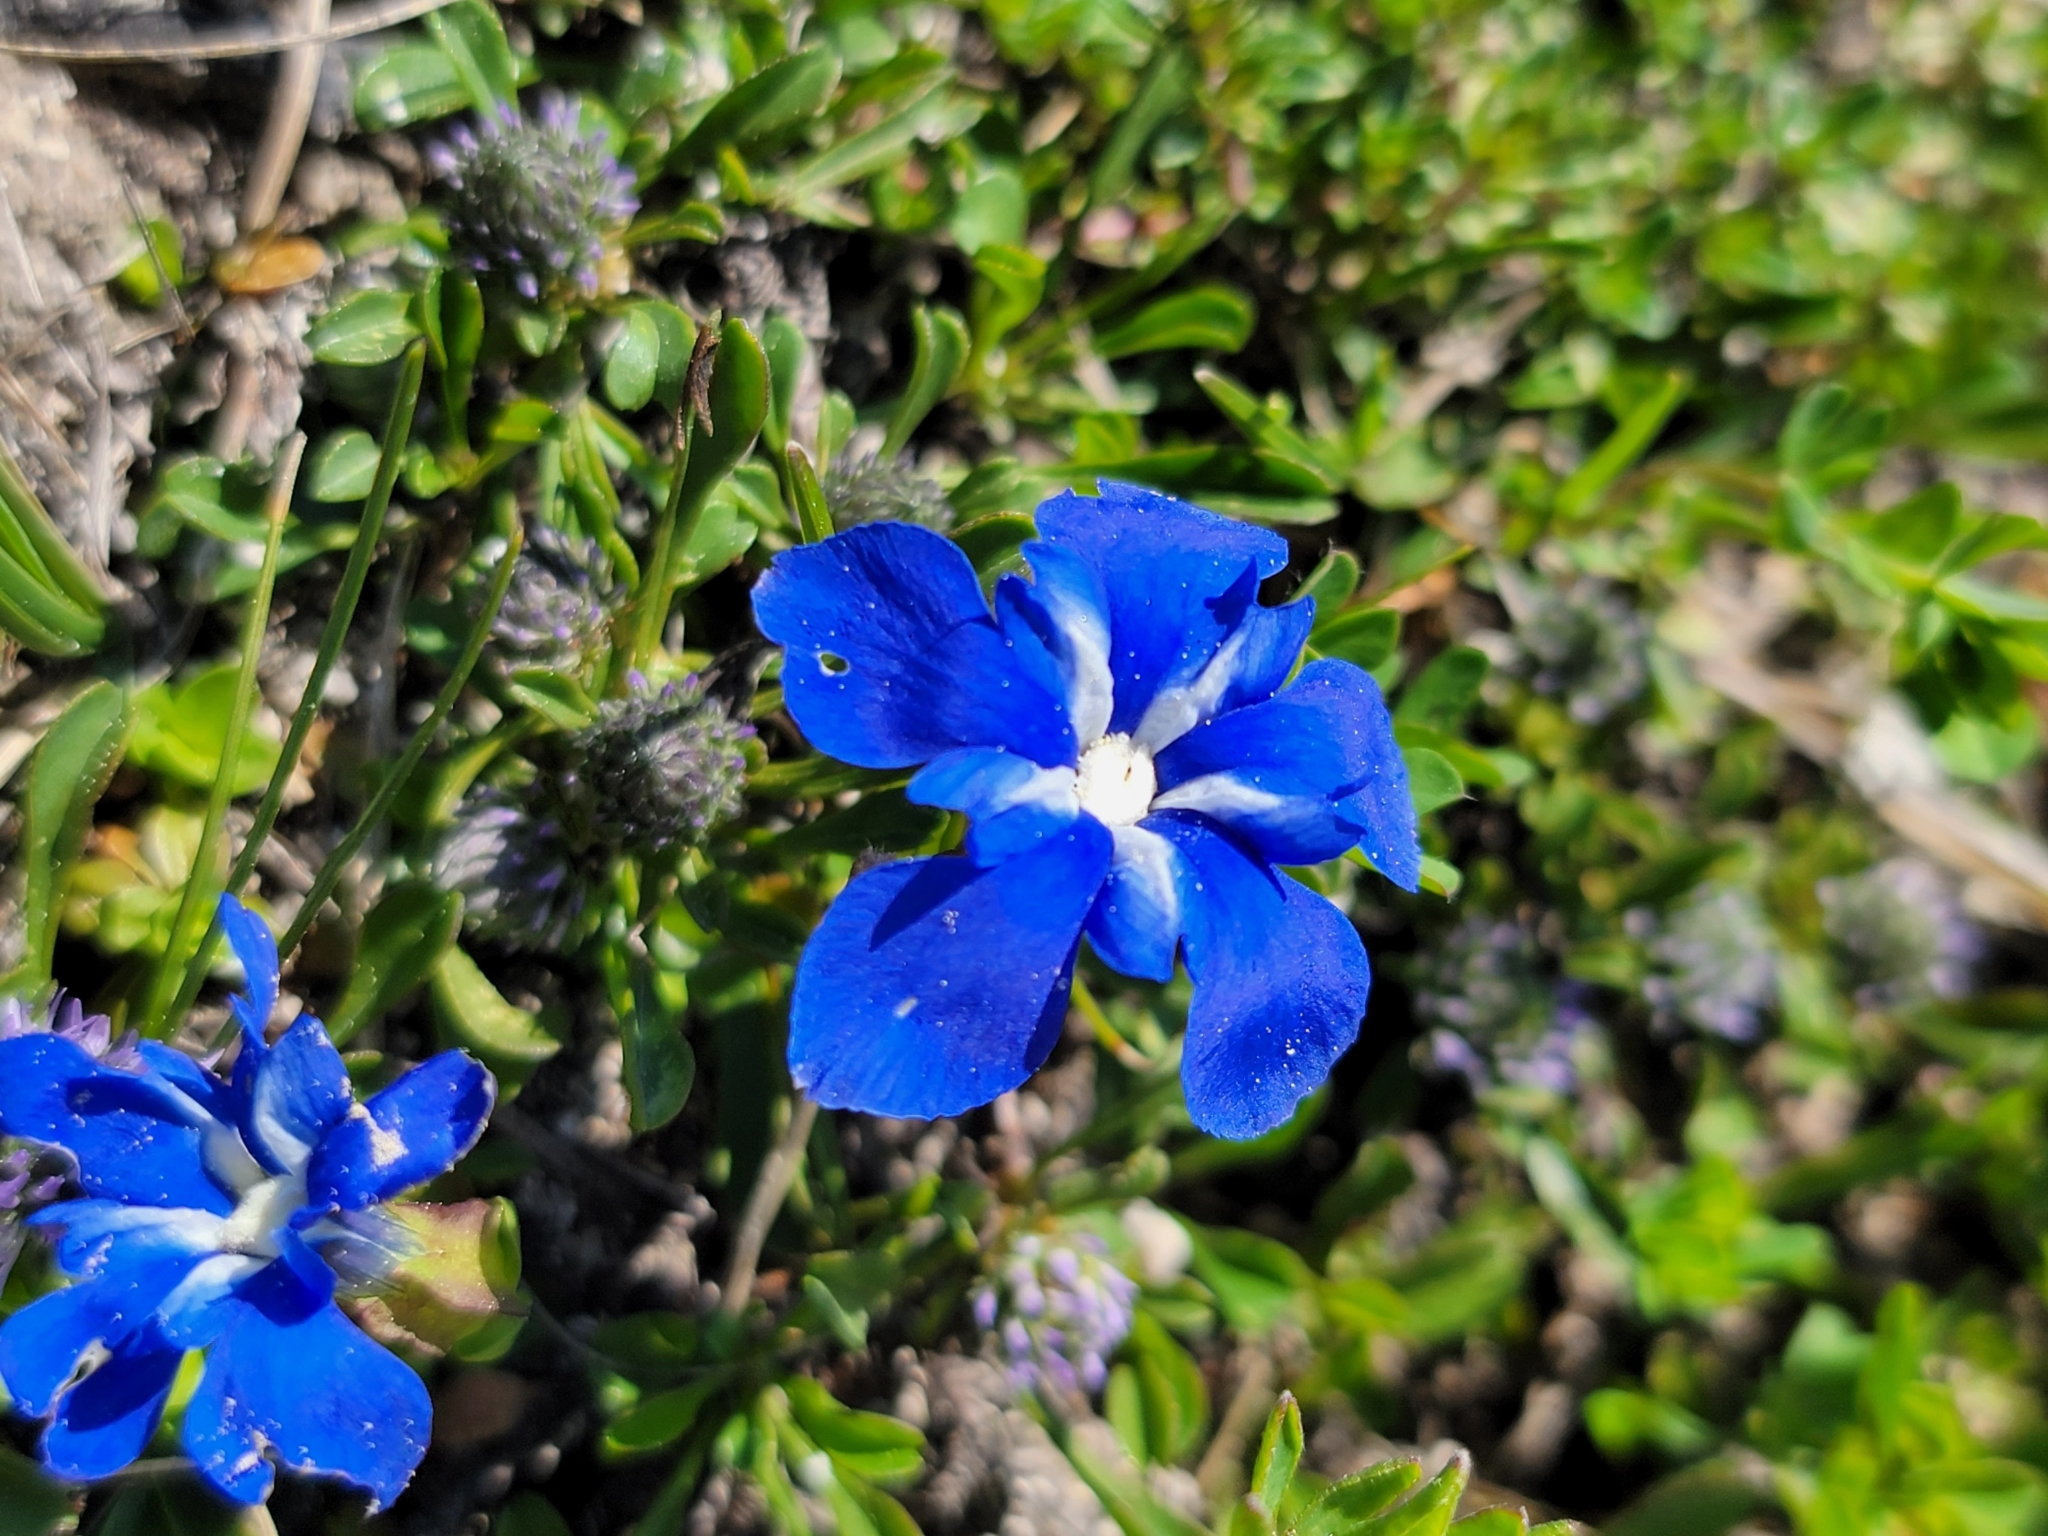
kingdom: Plantae
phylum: Tracheophyta
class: Magnoliopsida
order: Gentianales
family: Gentianaceae
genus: Gentiana
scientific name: Gentiana verna
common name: Spring gentian
